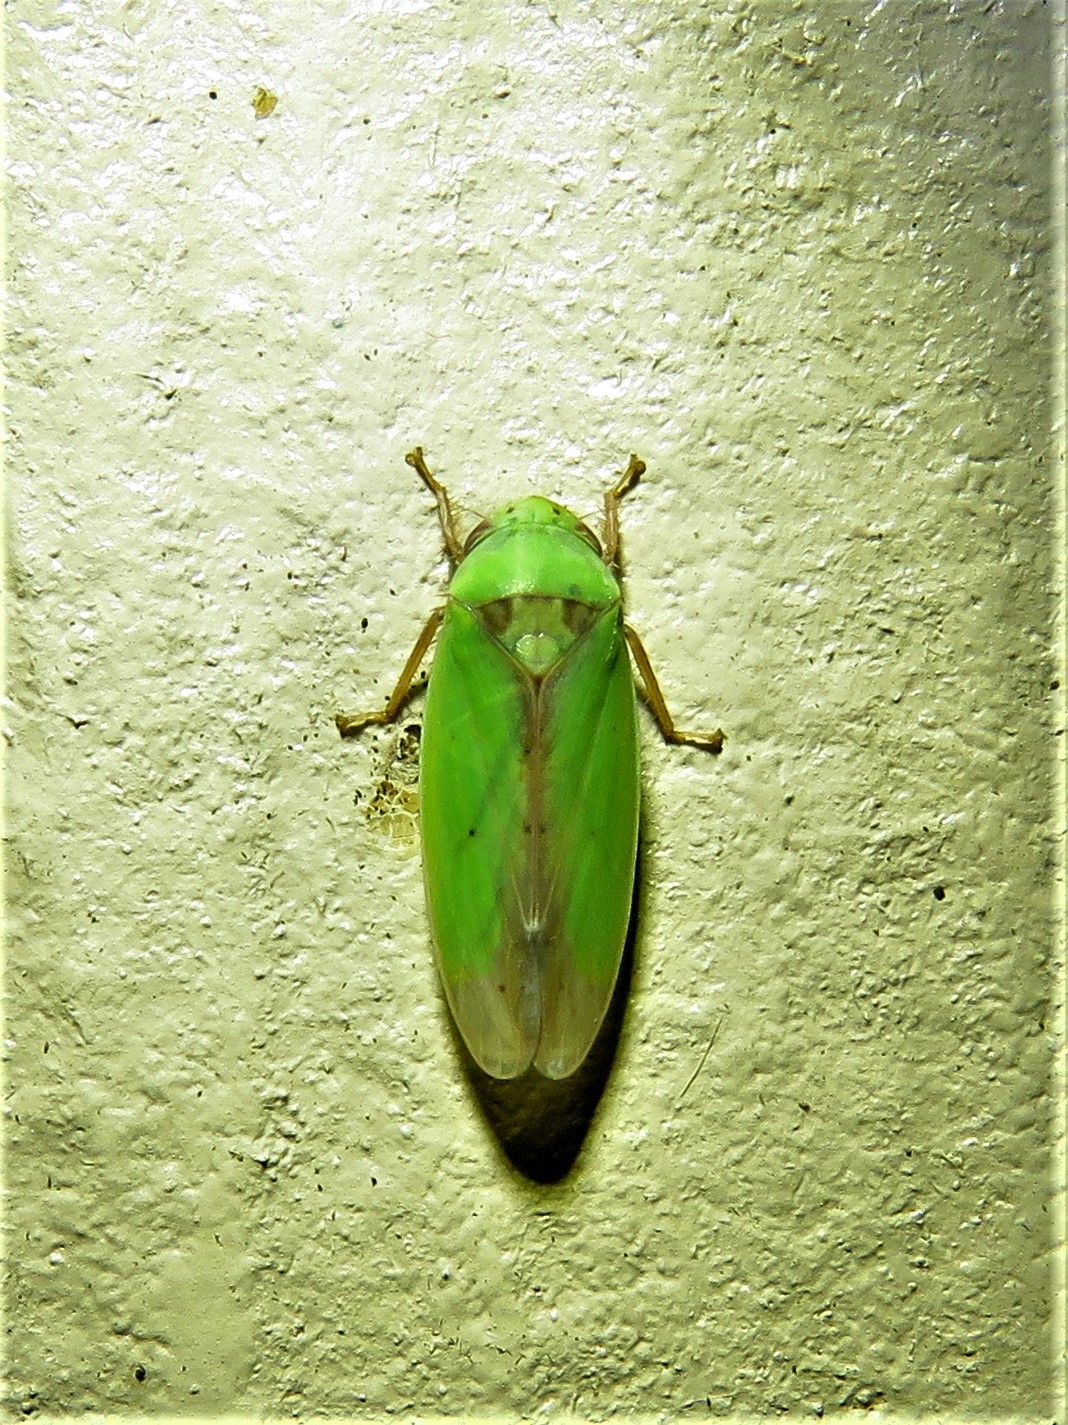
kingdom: Animalia
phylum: Arthropoda
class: Insecta
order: Hemiptera
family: Cicadellidae
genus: Ponana
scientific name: Ponana
